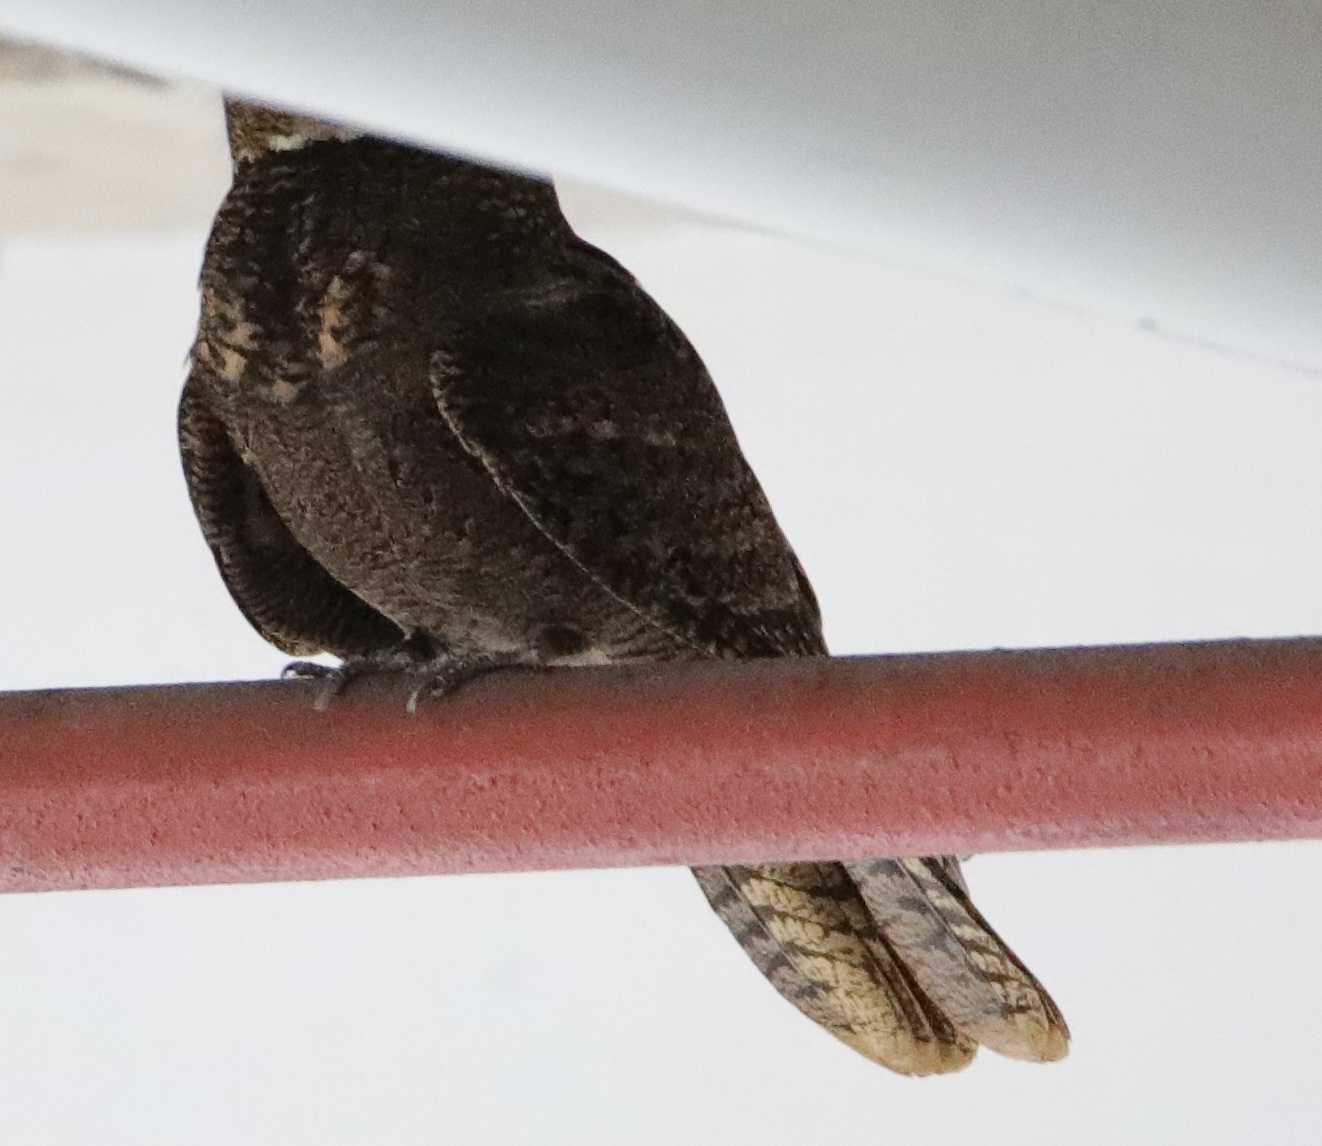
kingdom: Animalia
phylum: Chordata
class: Aves
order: Caprimulgiformes
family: Caprimulgidae
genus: Antrostomus
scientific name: Antrostomus carolinensis
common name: Chuck-will's-widow
